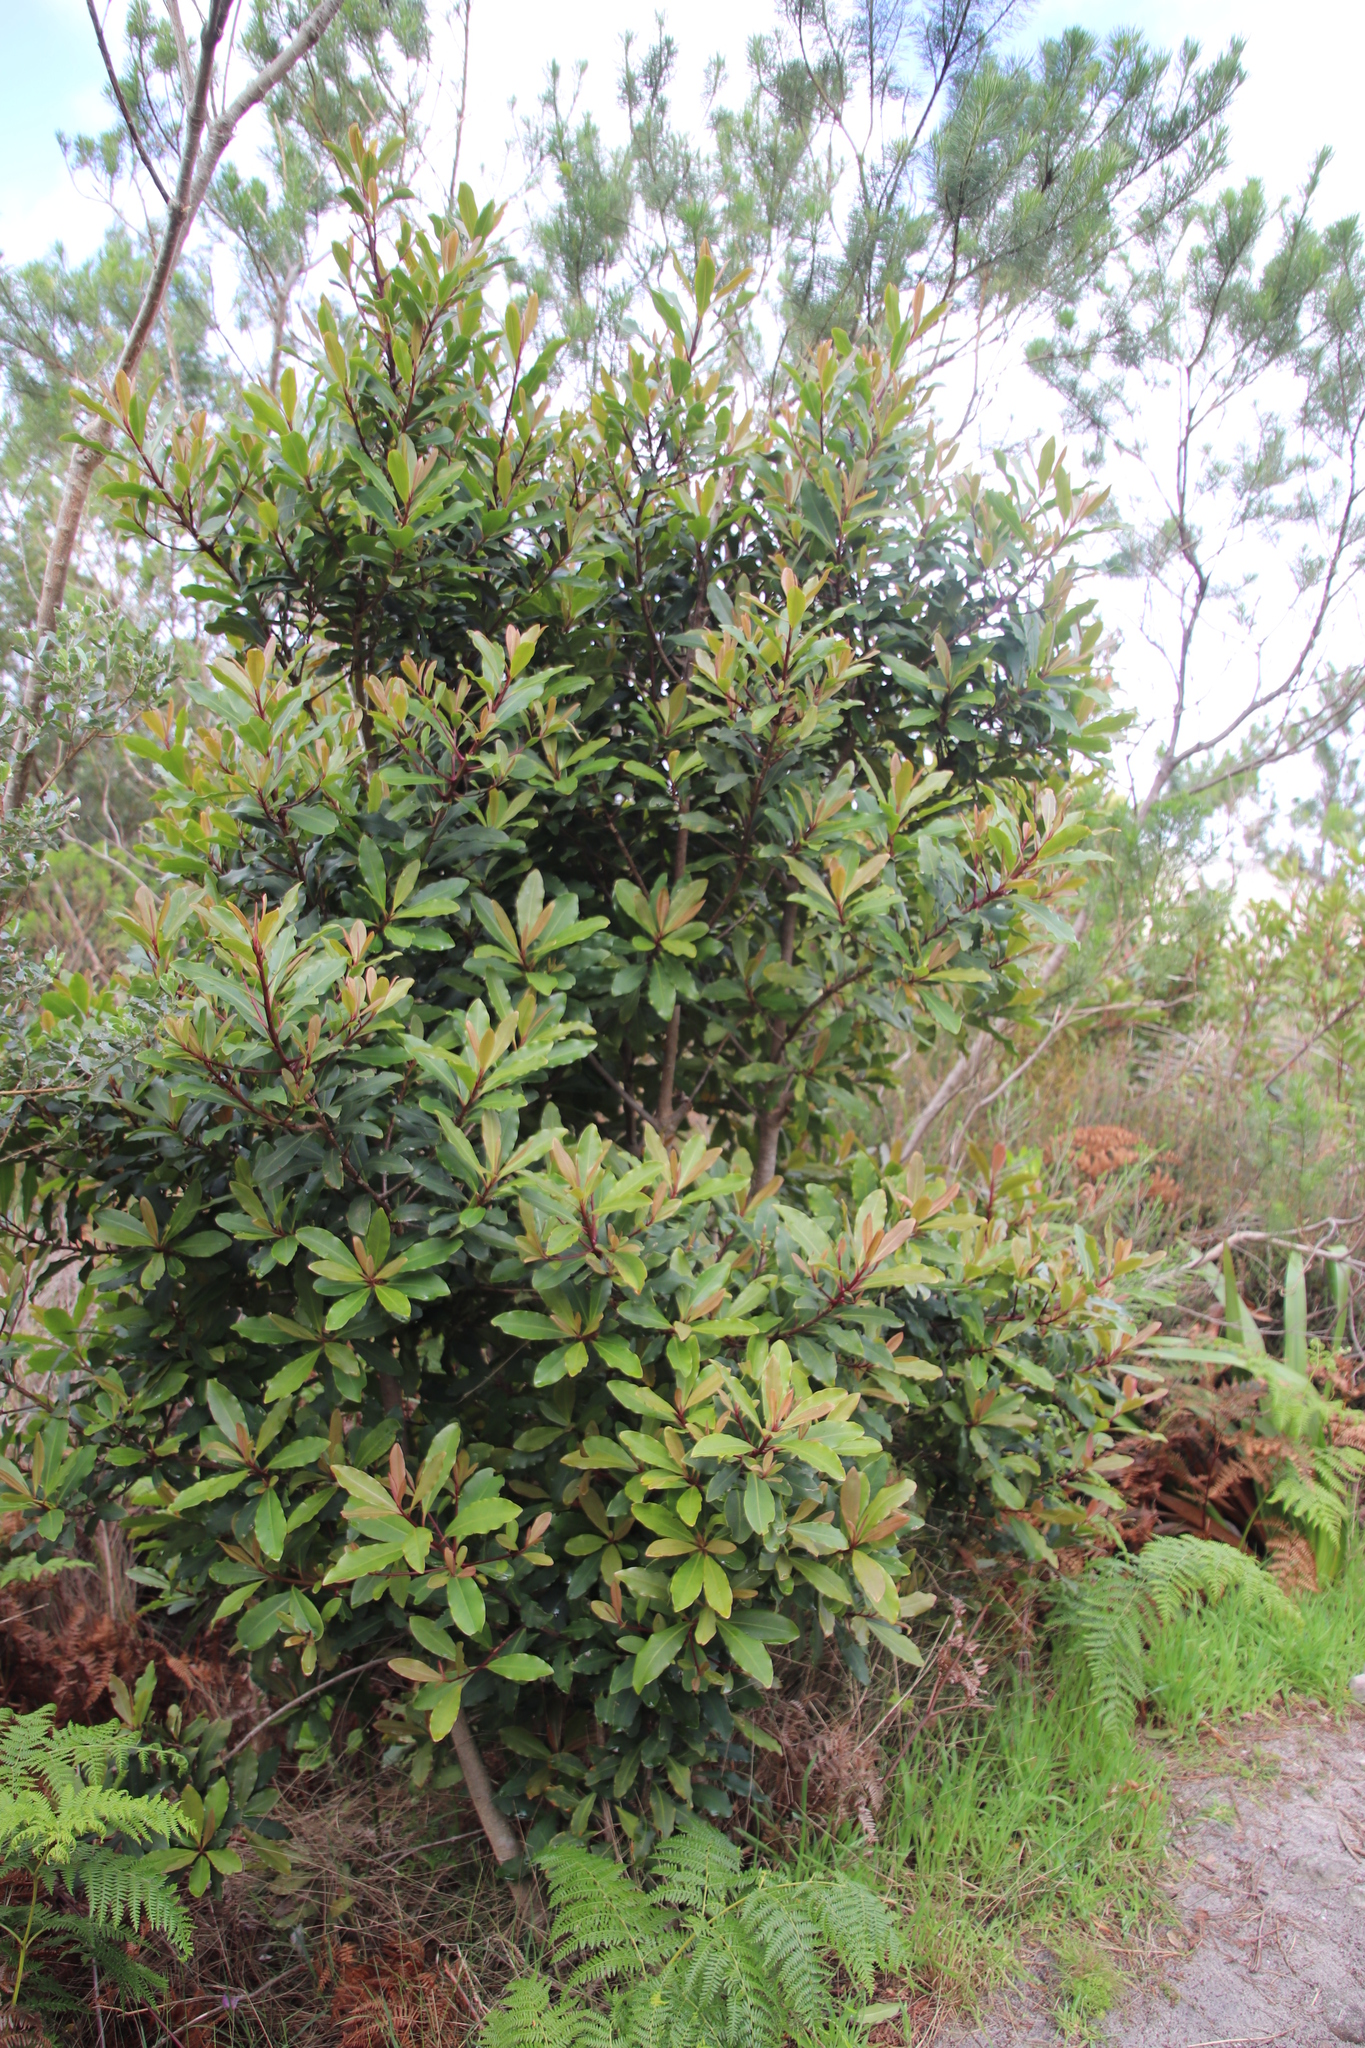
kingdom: Plantae
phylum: Tracheophyta
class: Magnoliopsida
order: Ericales
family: Primulaceae
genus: Myrsine
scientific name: Myrsine melanophloeos
